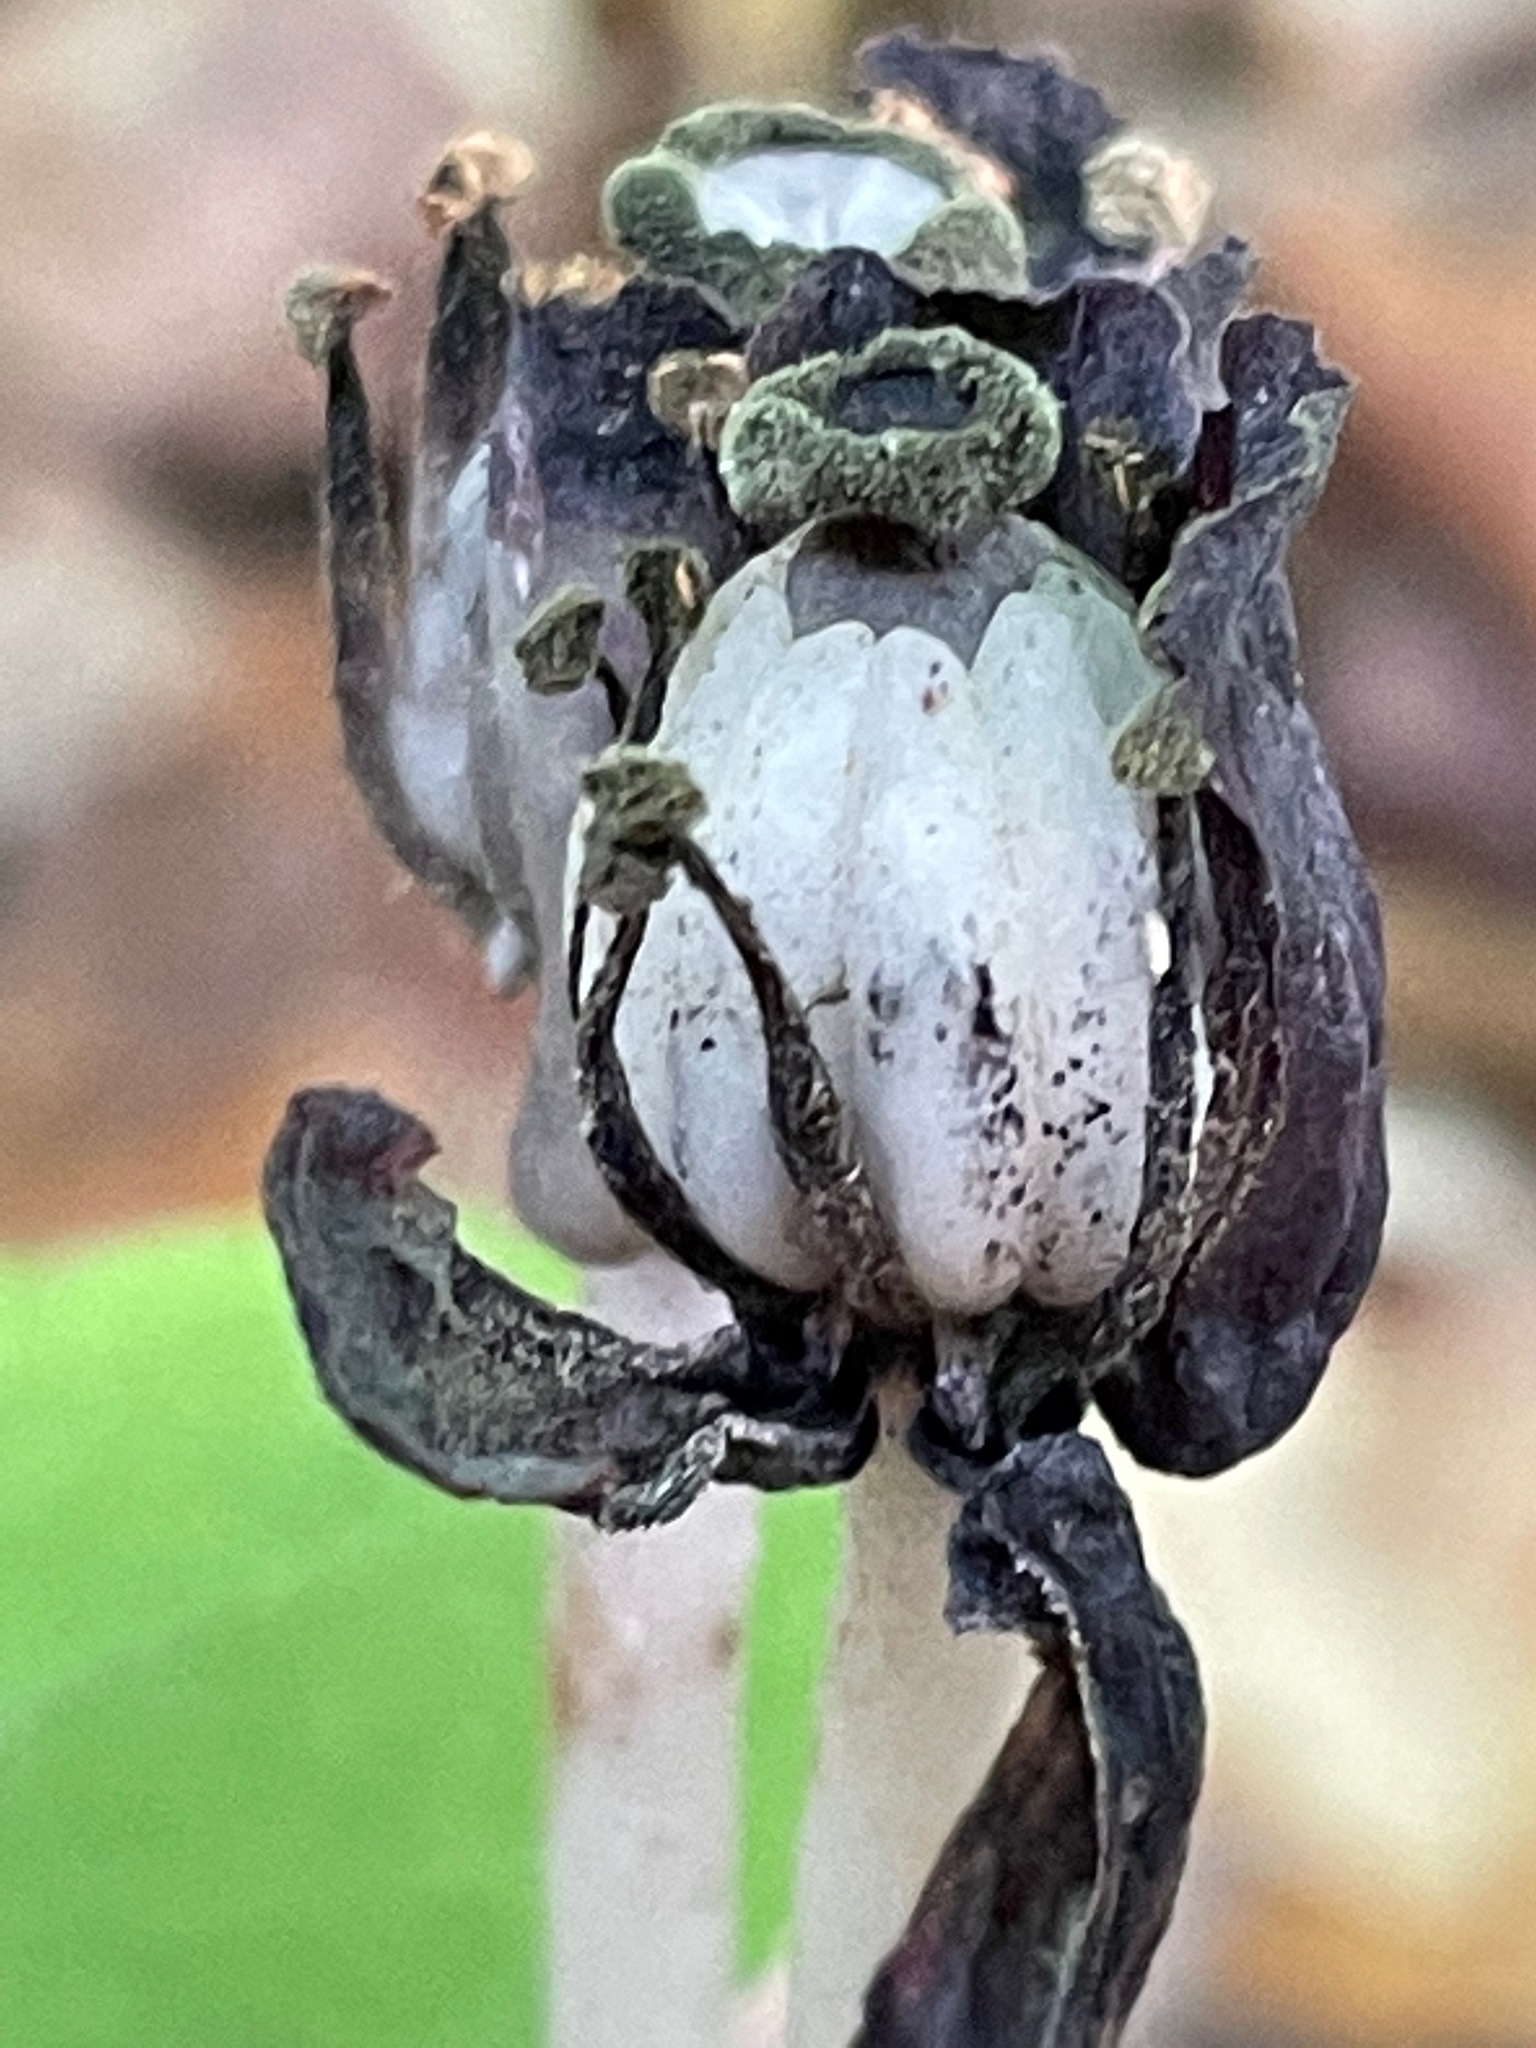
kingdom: Plantae
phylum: Tracheophyta
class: Magnoliopsida
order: Ericales
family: Ericaceae
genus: Monotropa
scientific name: Monotropa uniflora
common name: Convulsion root
